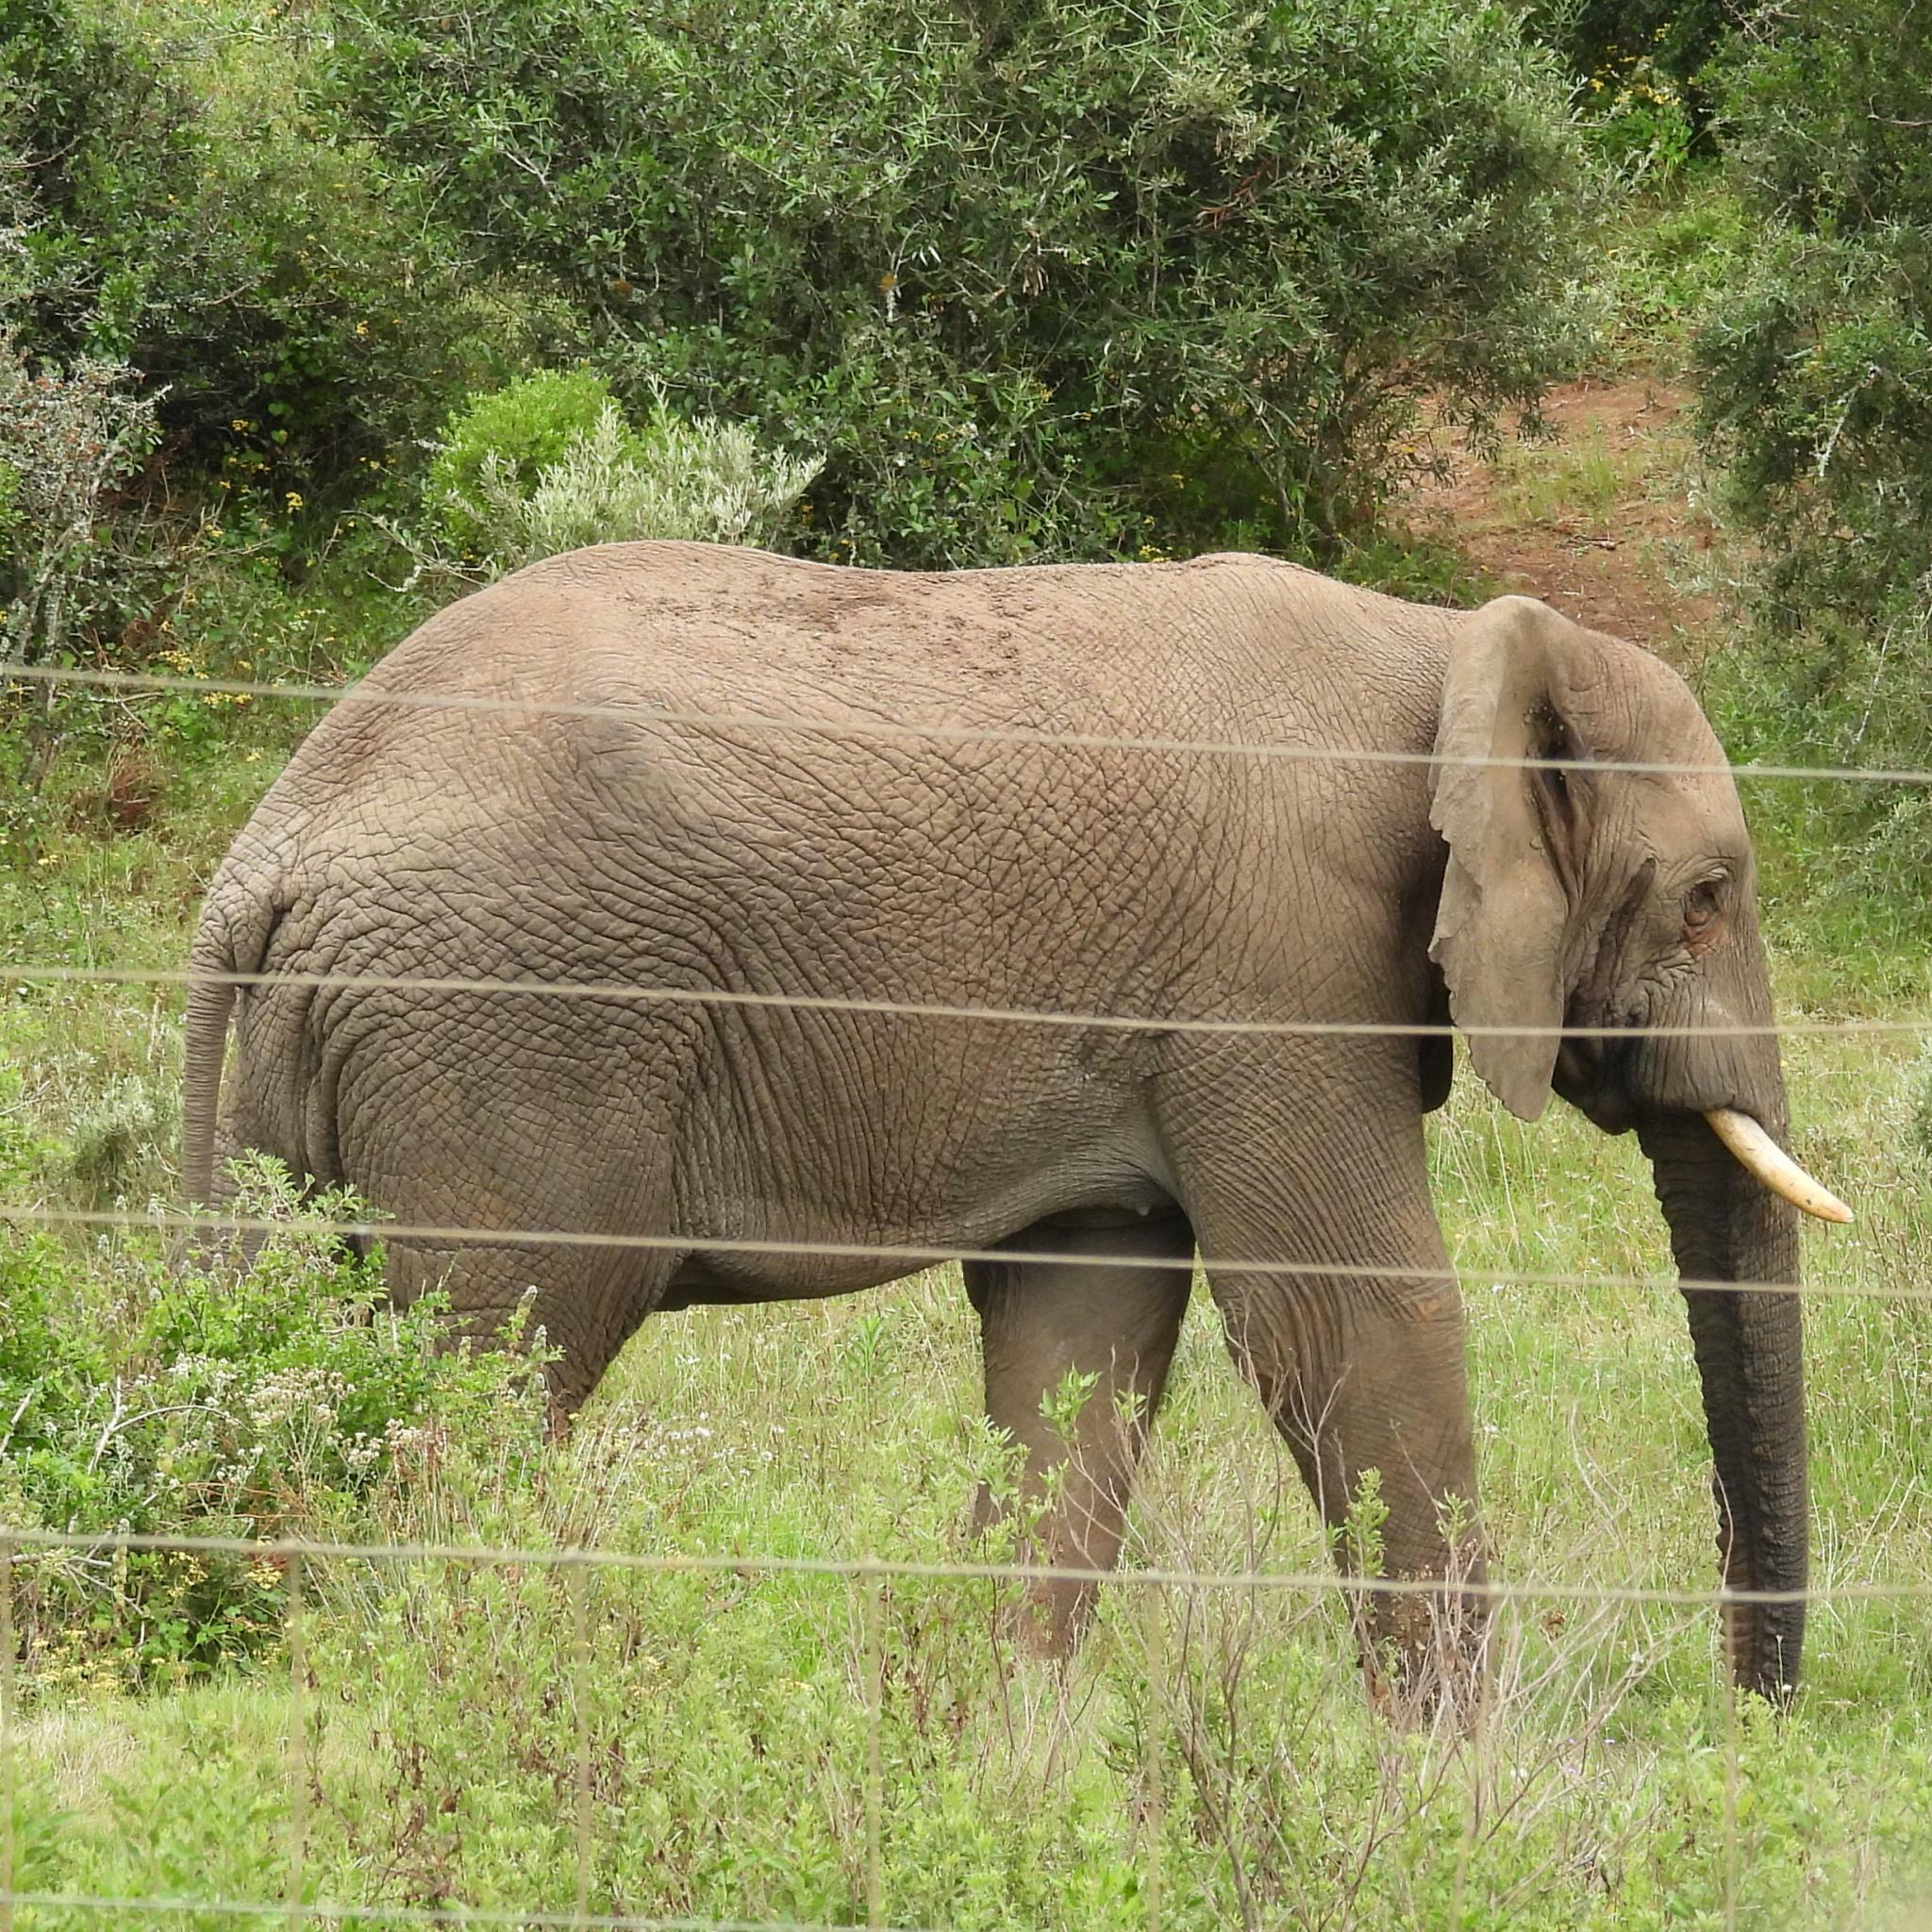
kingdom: Animalia
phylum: Chordata
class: Mammalia
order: Proboscidea
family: Elephantidae
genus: Loxodonta
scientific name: Loxodonta africana
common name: African elephant
